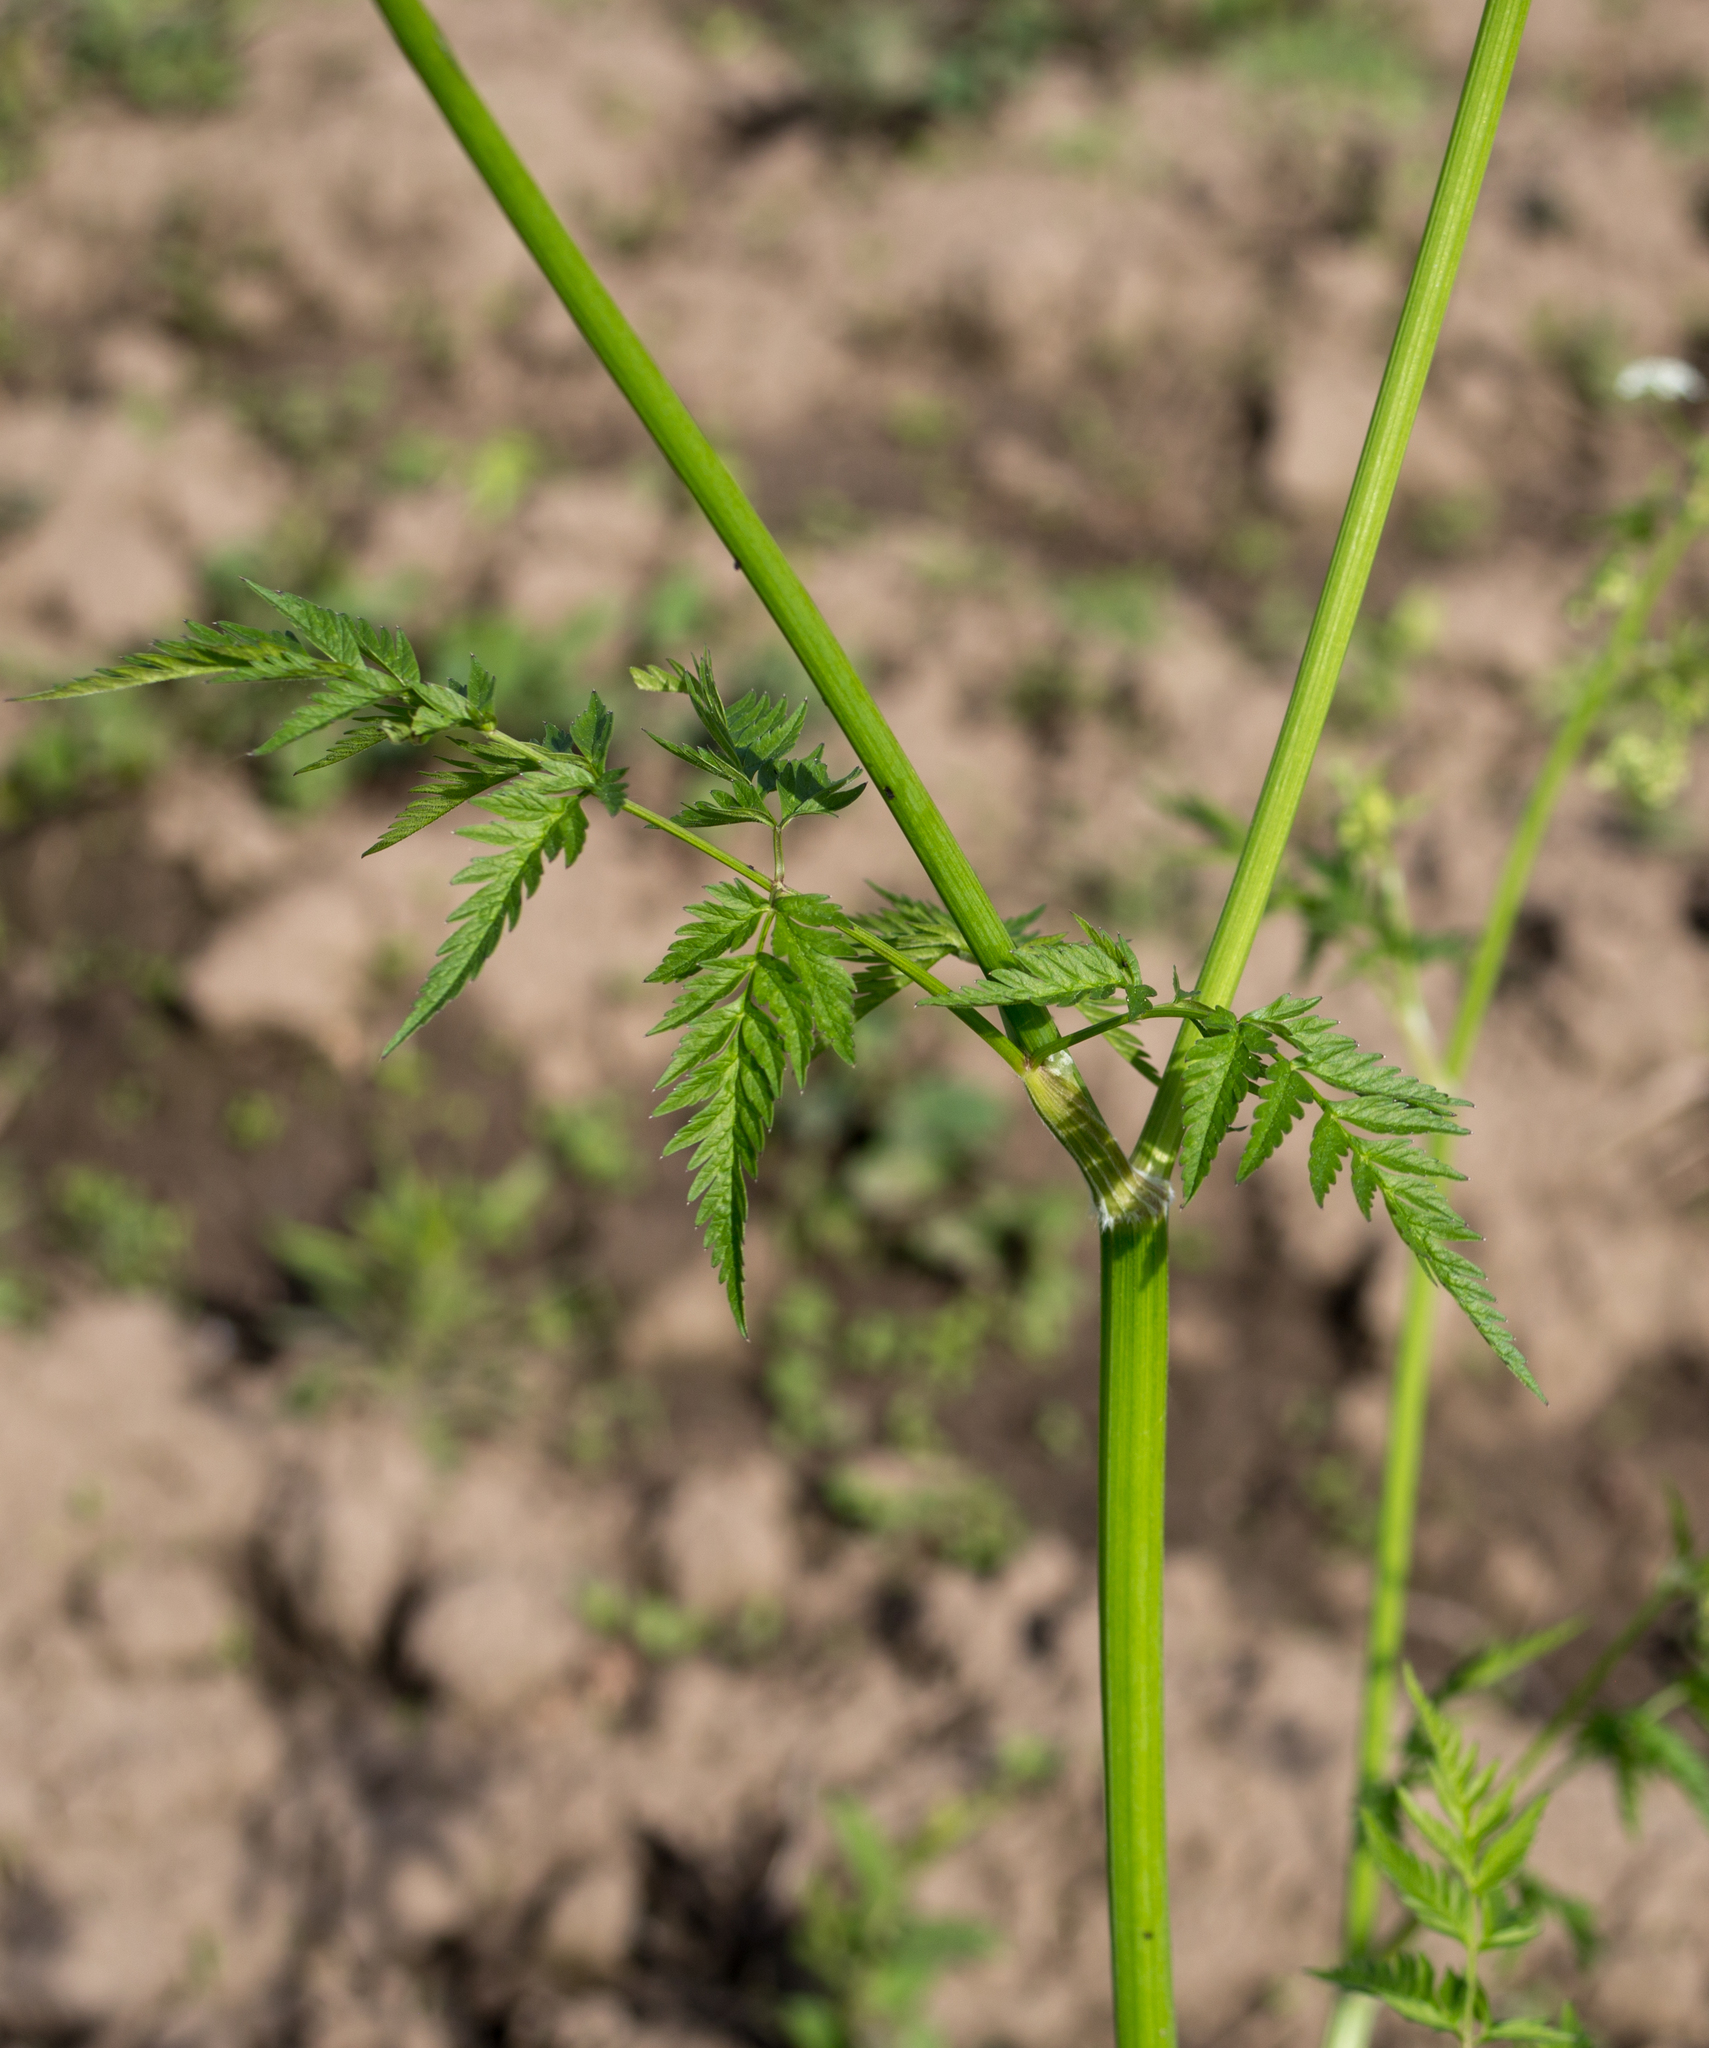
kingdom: Plantae
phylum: Tracheophyta
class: Magnoliopsida
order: Apiales
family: Apiaceae
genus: Anthriscus
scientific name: Anthriscus sylvestris
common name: Cow parsley
